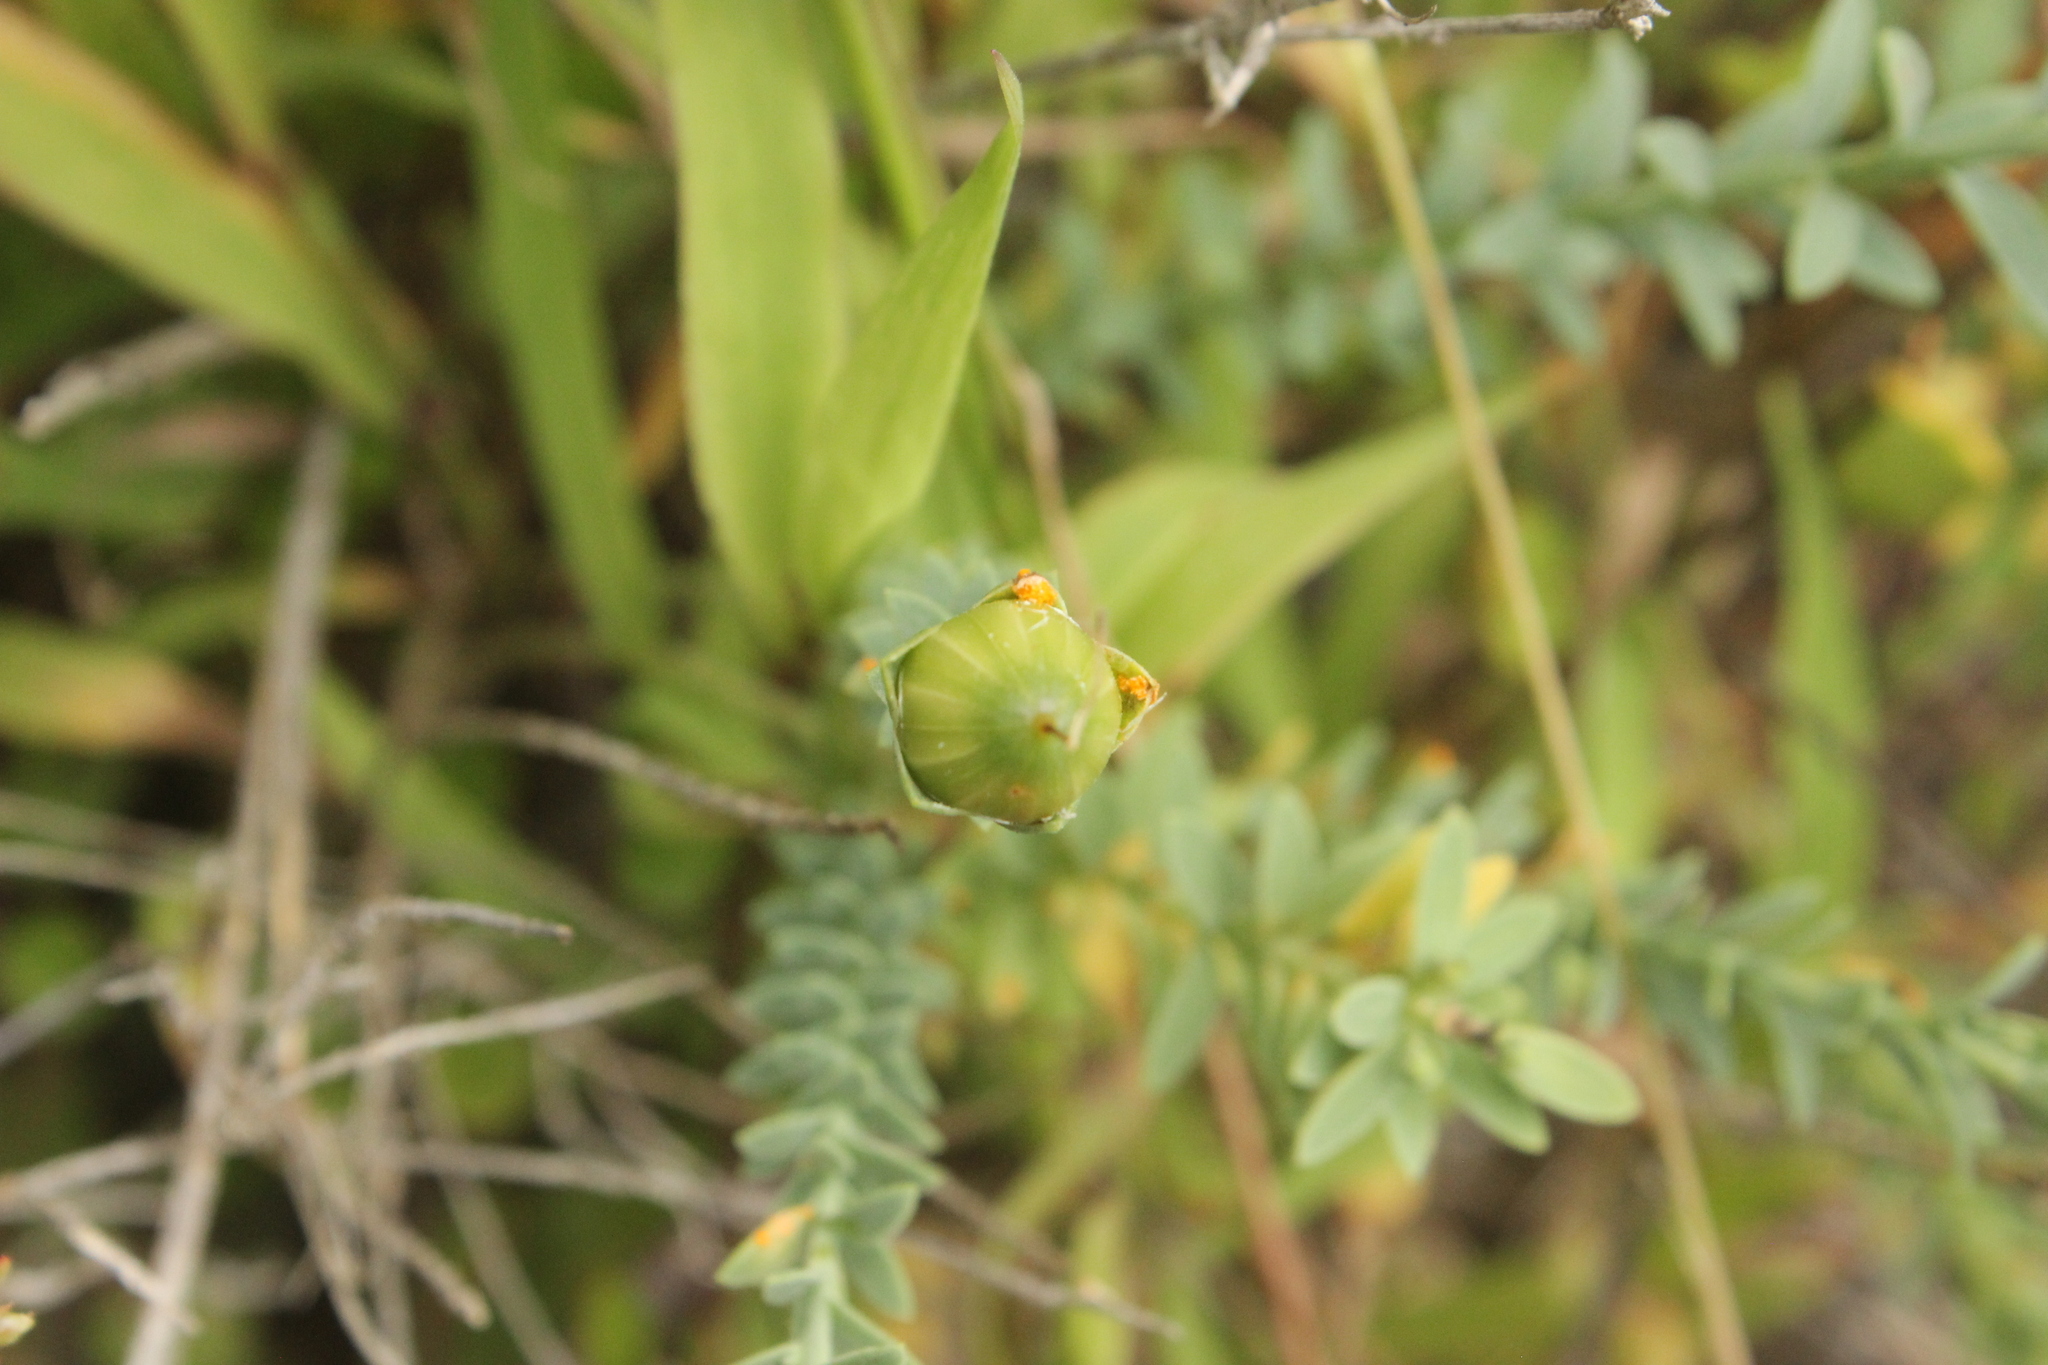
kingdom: Plantae
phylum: Tracheophyta
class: Magnoliopsida
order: Malpighiales
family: Linaceae
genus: Linum
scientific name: Linum monogynum
